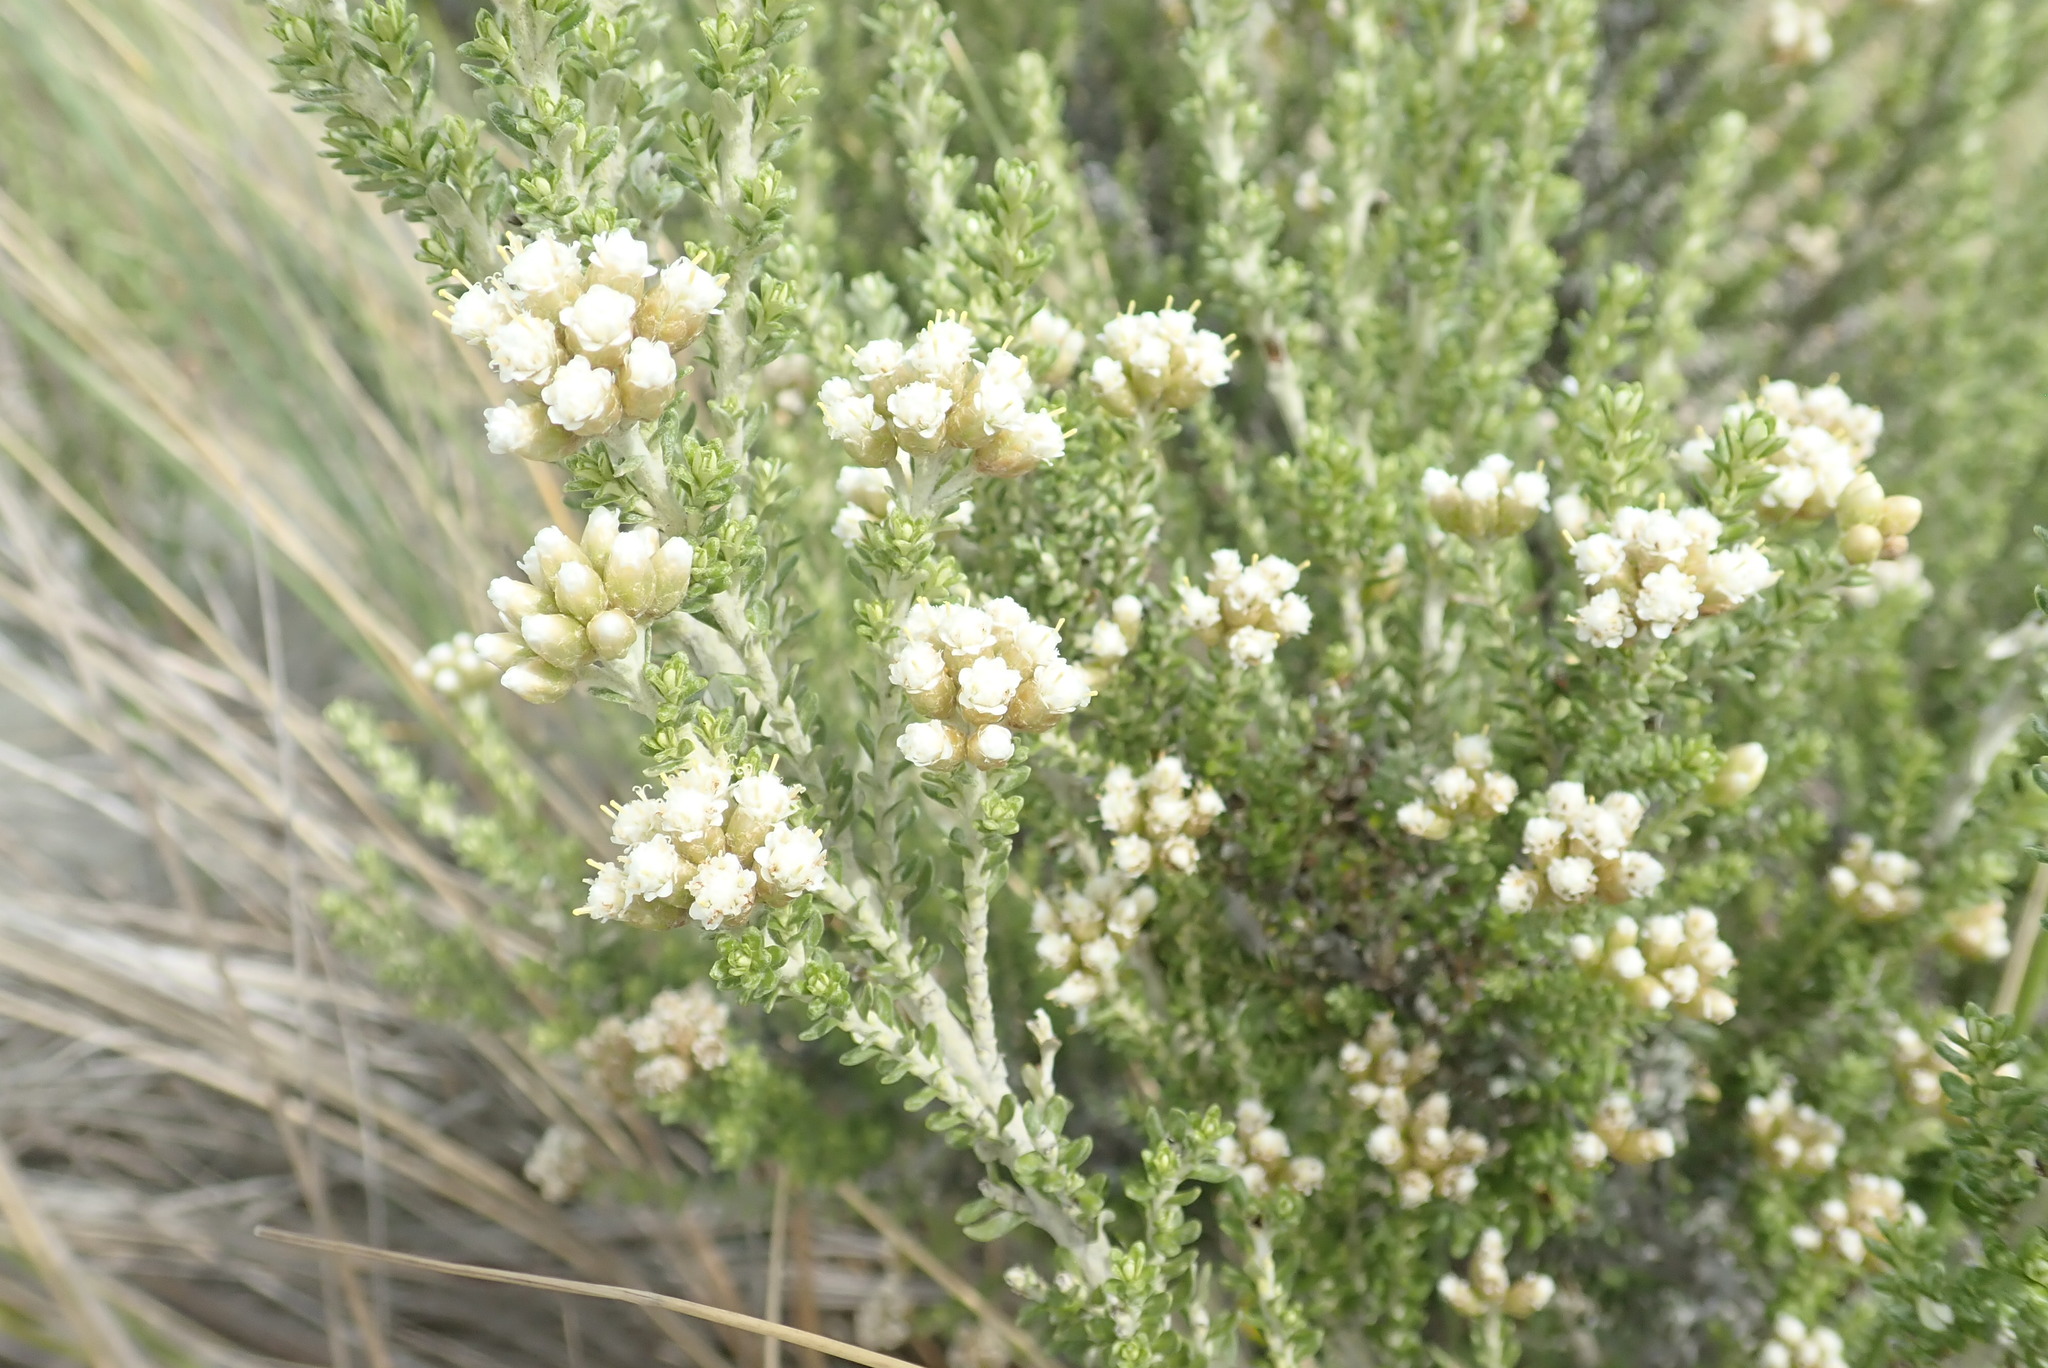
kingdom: Plantae
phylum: Tracheophyta
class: Magnoliopsida
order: Asterales
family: Asteraceae
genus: Ozothamnus
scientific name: Ozothamnus leptophyllus
